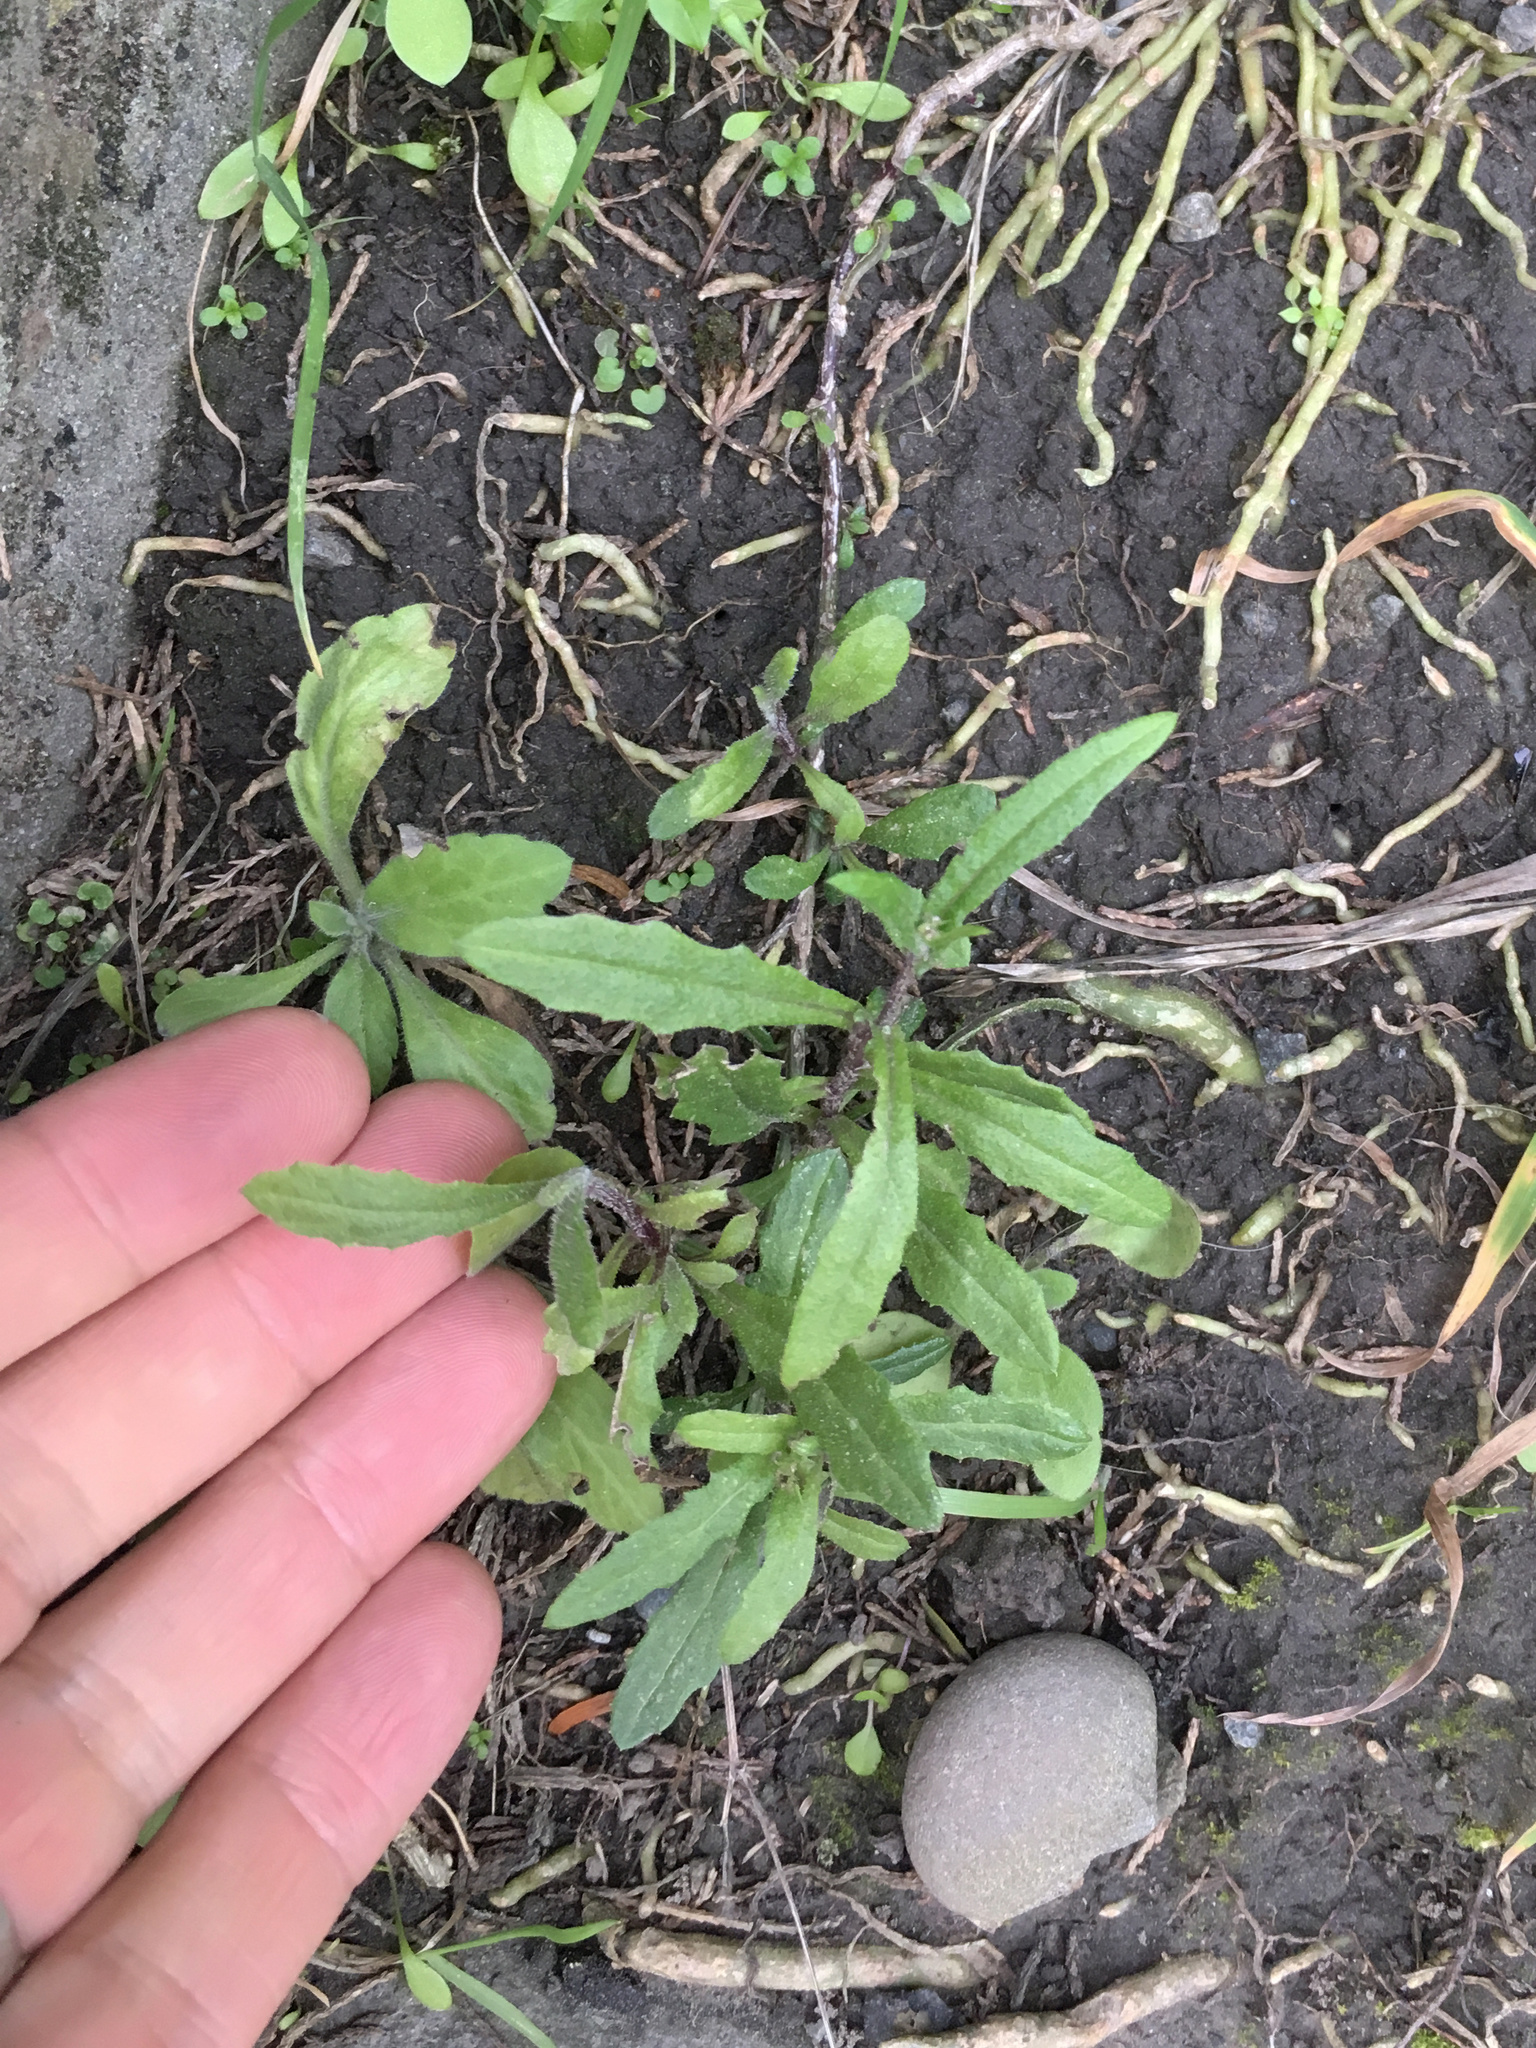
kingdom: Plantae
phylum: Tracheophyta
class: Magnoliopsida
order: Asterales
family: Asteraceae
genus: Senecio
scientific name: Senecio hispidulus
